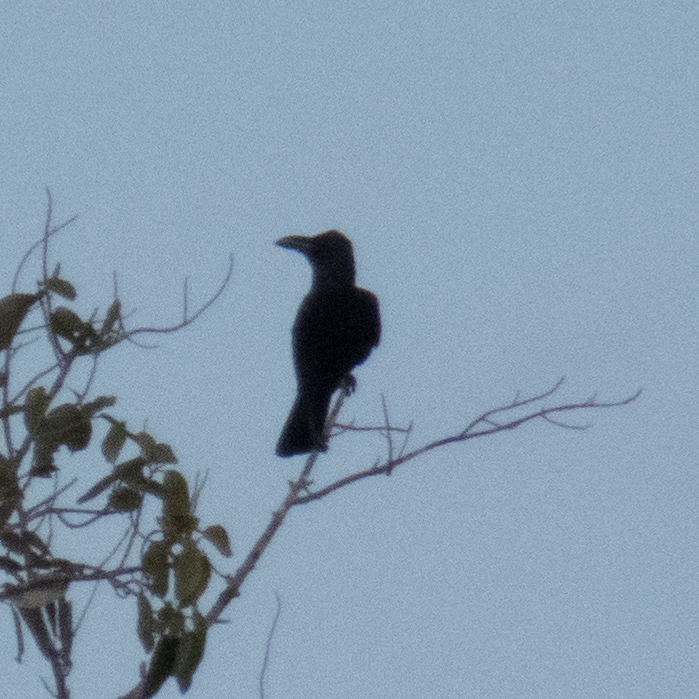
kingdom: Animalia
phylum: Chordata
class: Aves
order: Passeriformes
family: Corvidae
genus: Corvus
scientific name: Corvus macrorhynchos
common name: Large-billed crow
